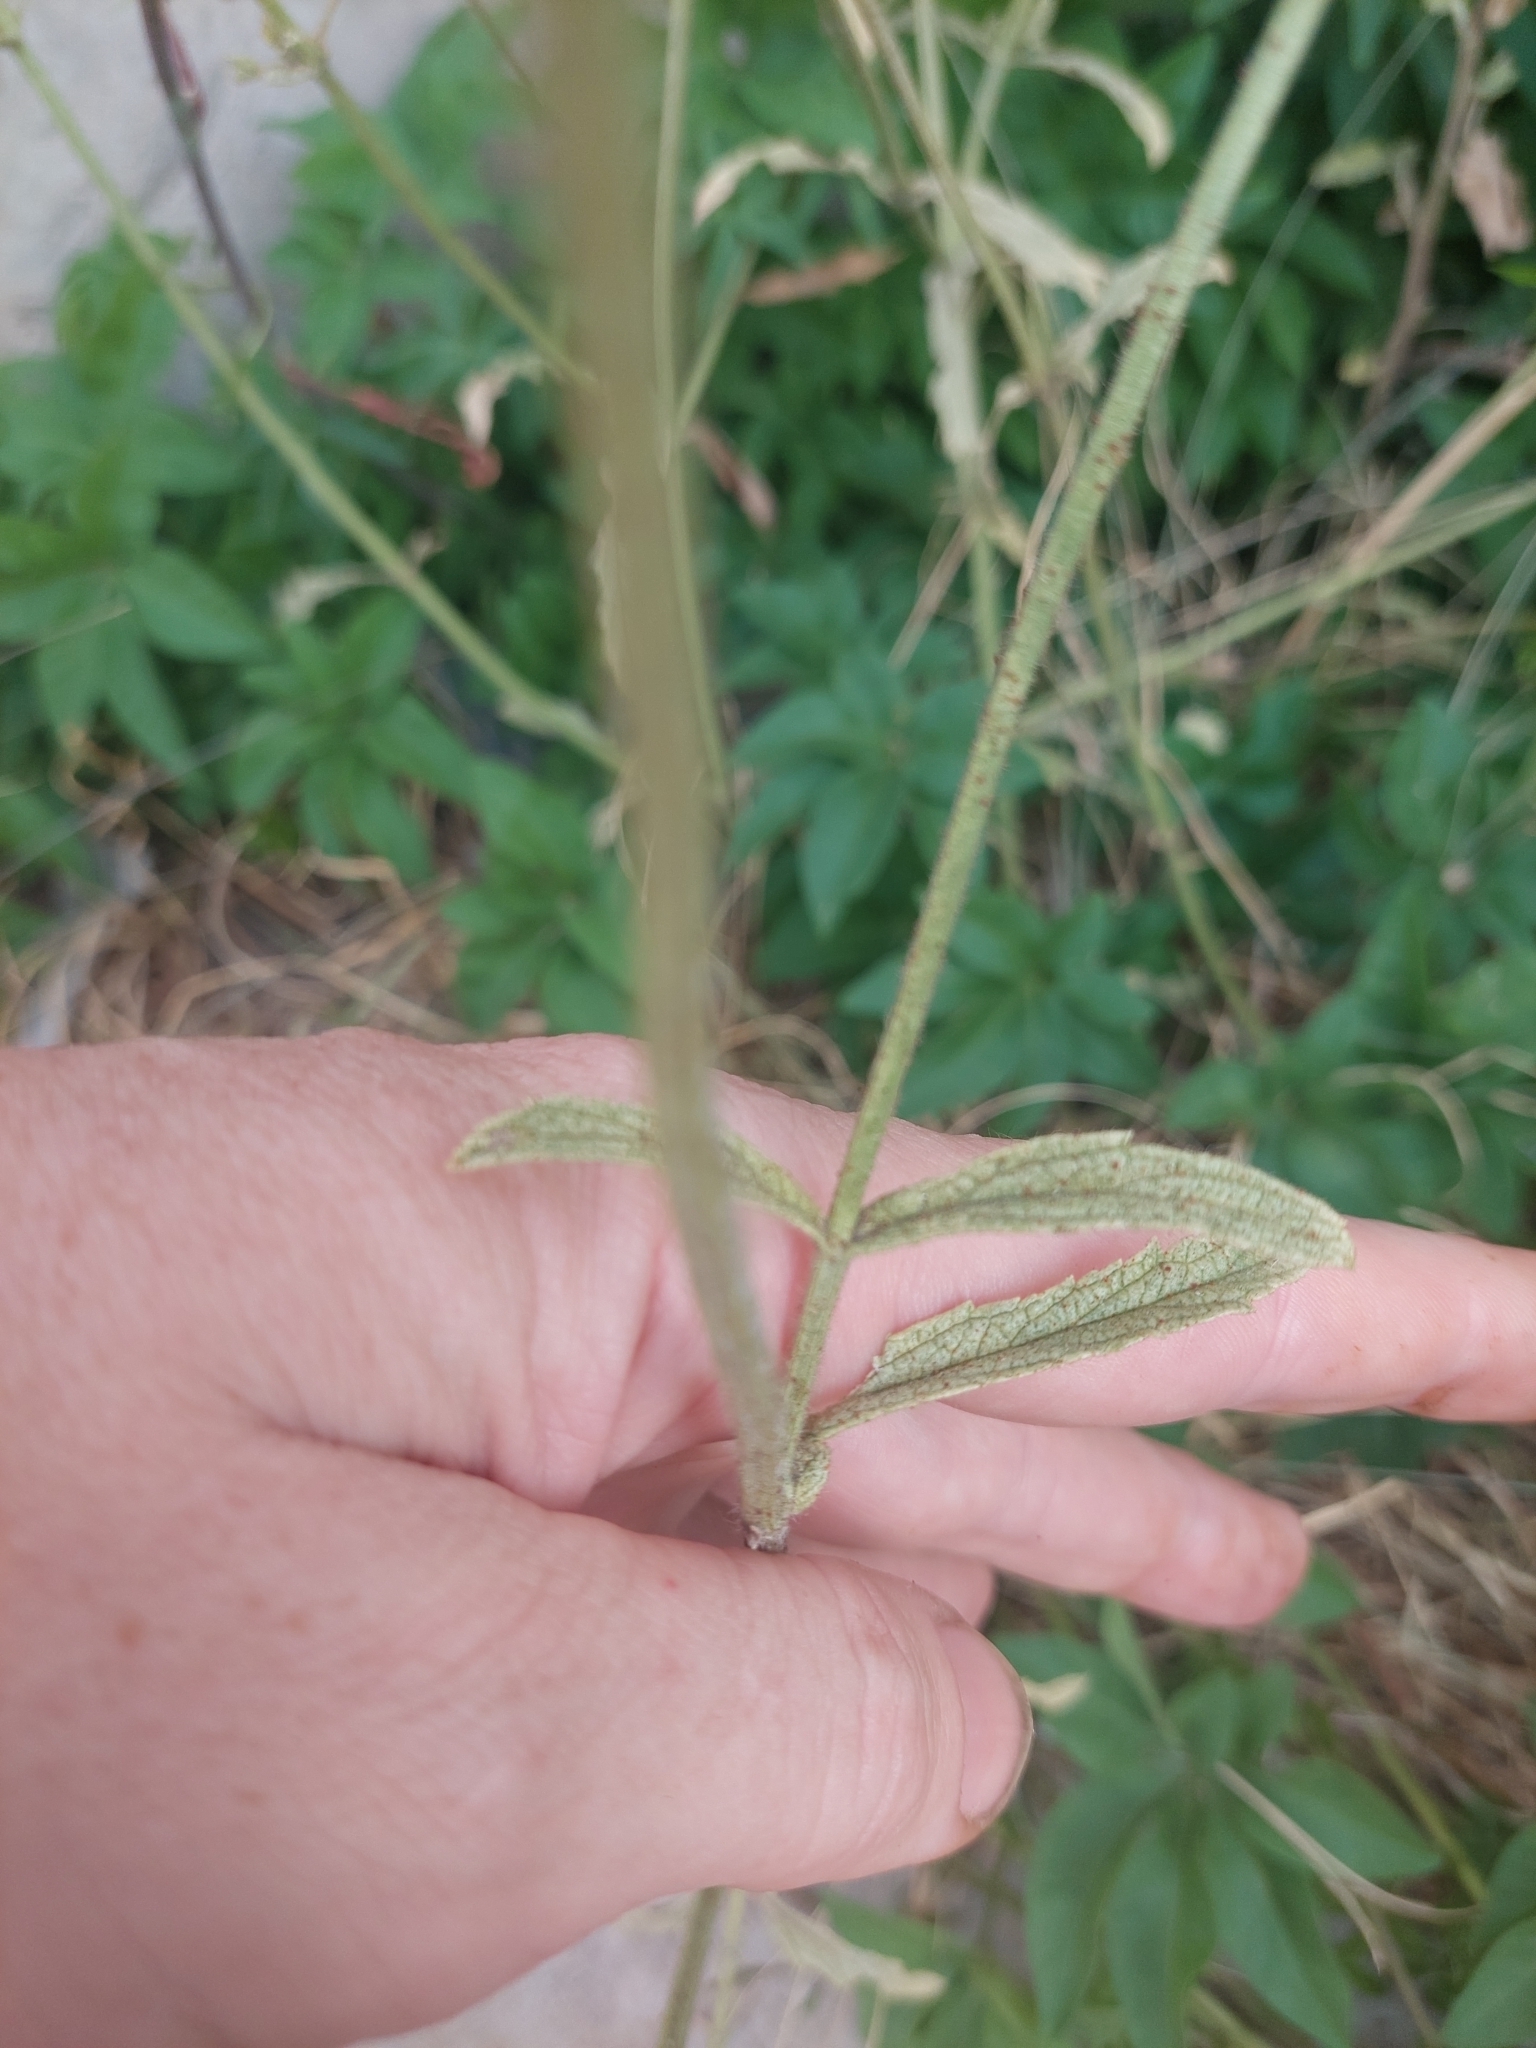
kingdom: Plantae
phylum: Tracheophyta
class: Magnoliopsida
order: Lamiales
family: Verbenaceae
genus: Verbena
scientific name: Verbena litoralis
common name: Seashore vervain
